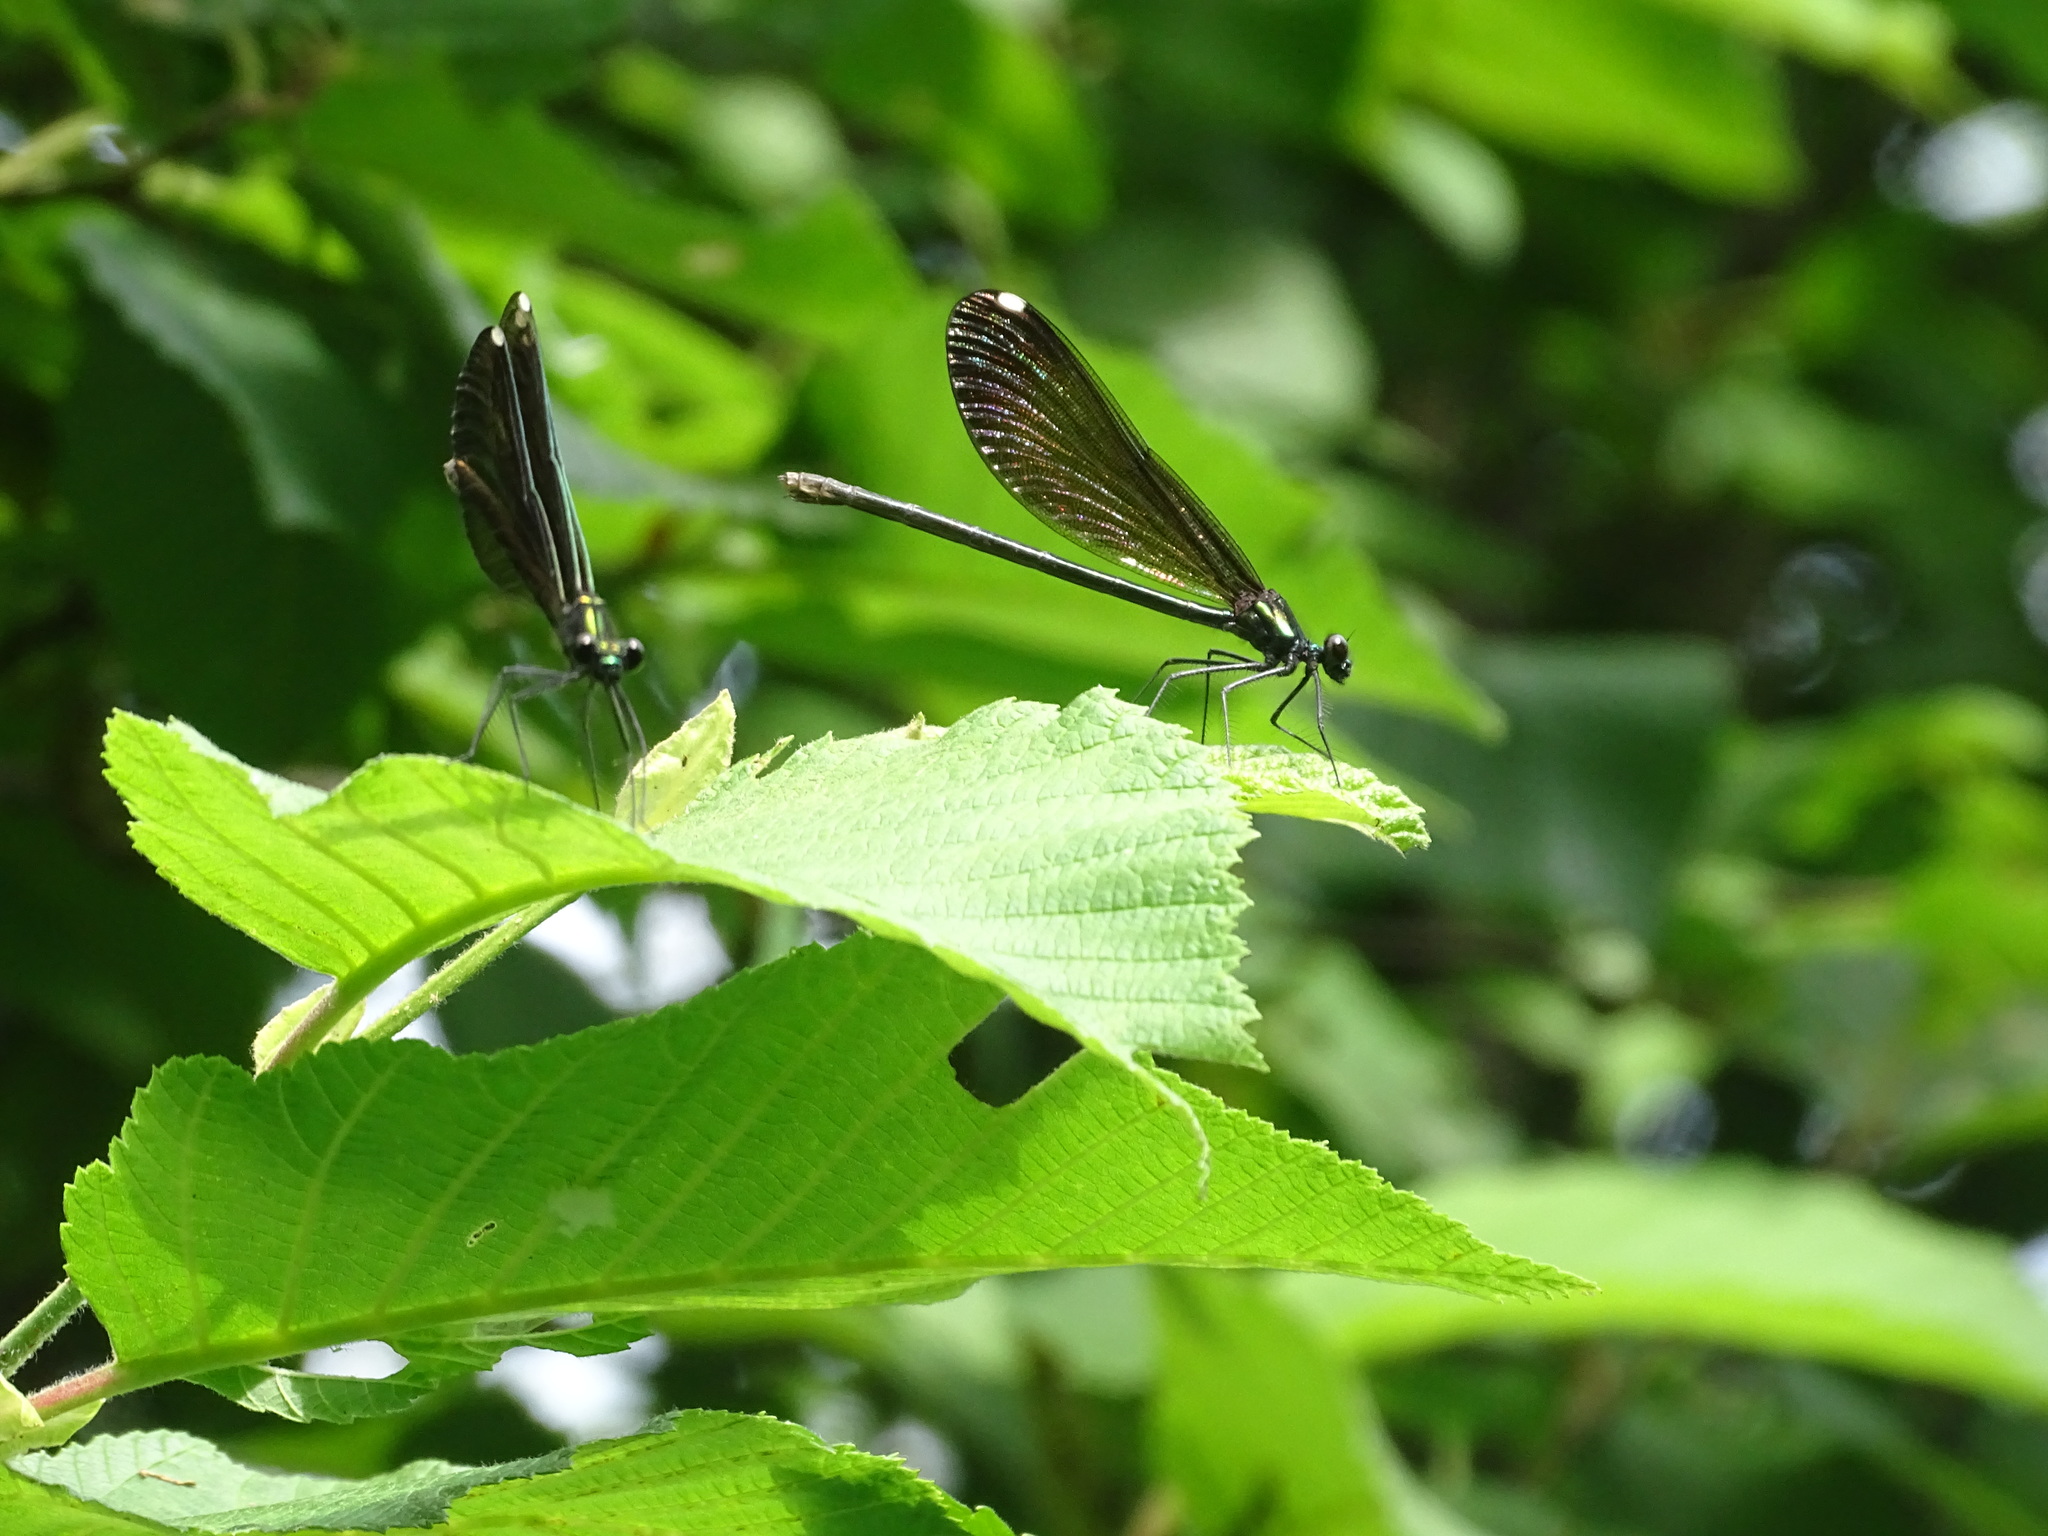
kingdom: Animalia
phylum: Arthropoda
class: Insecta
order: Odonata
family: Calopterygidae
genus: Calopteryx
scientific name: Calopteryx maculata
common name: Ebony jewelwing
